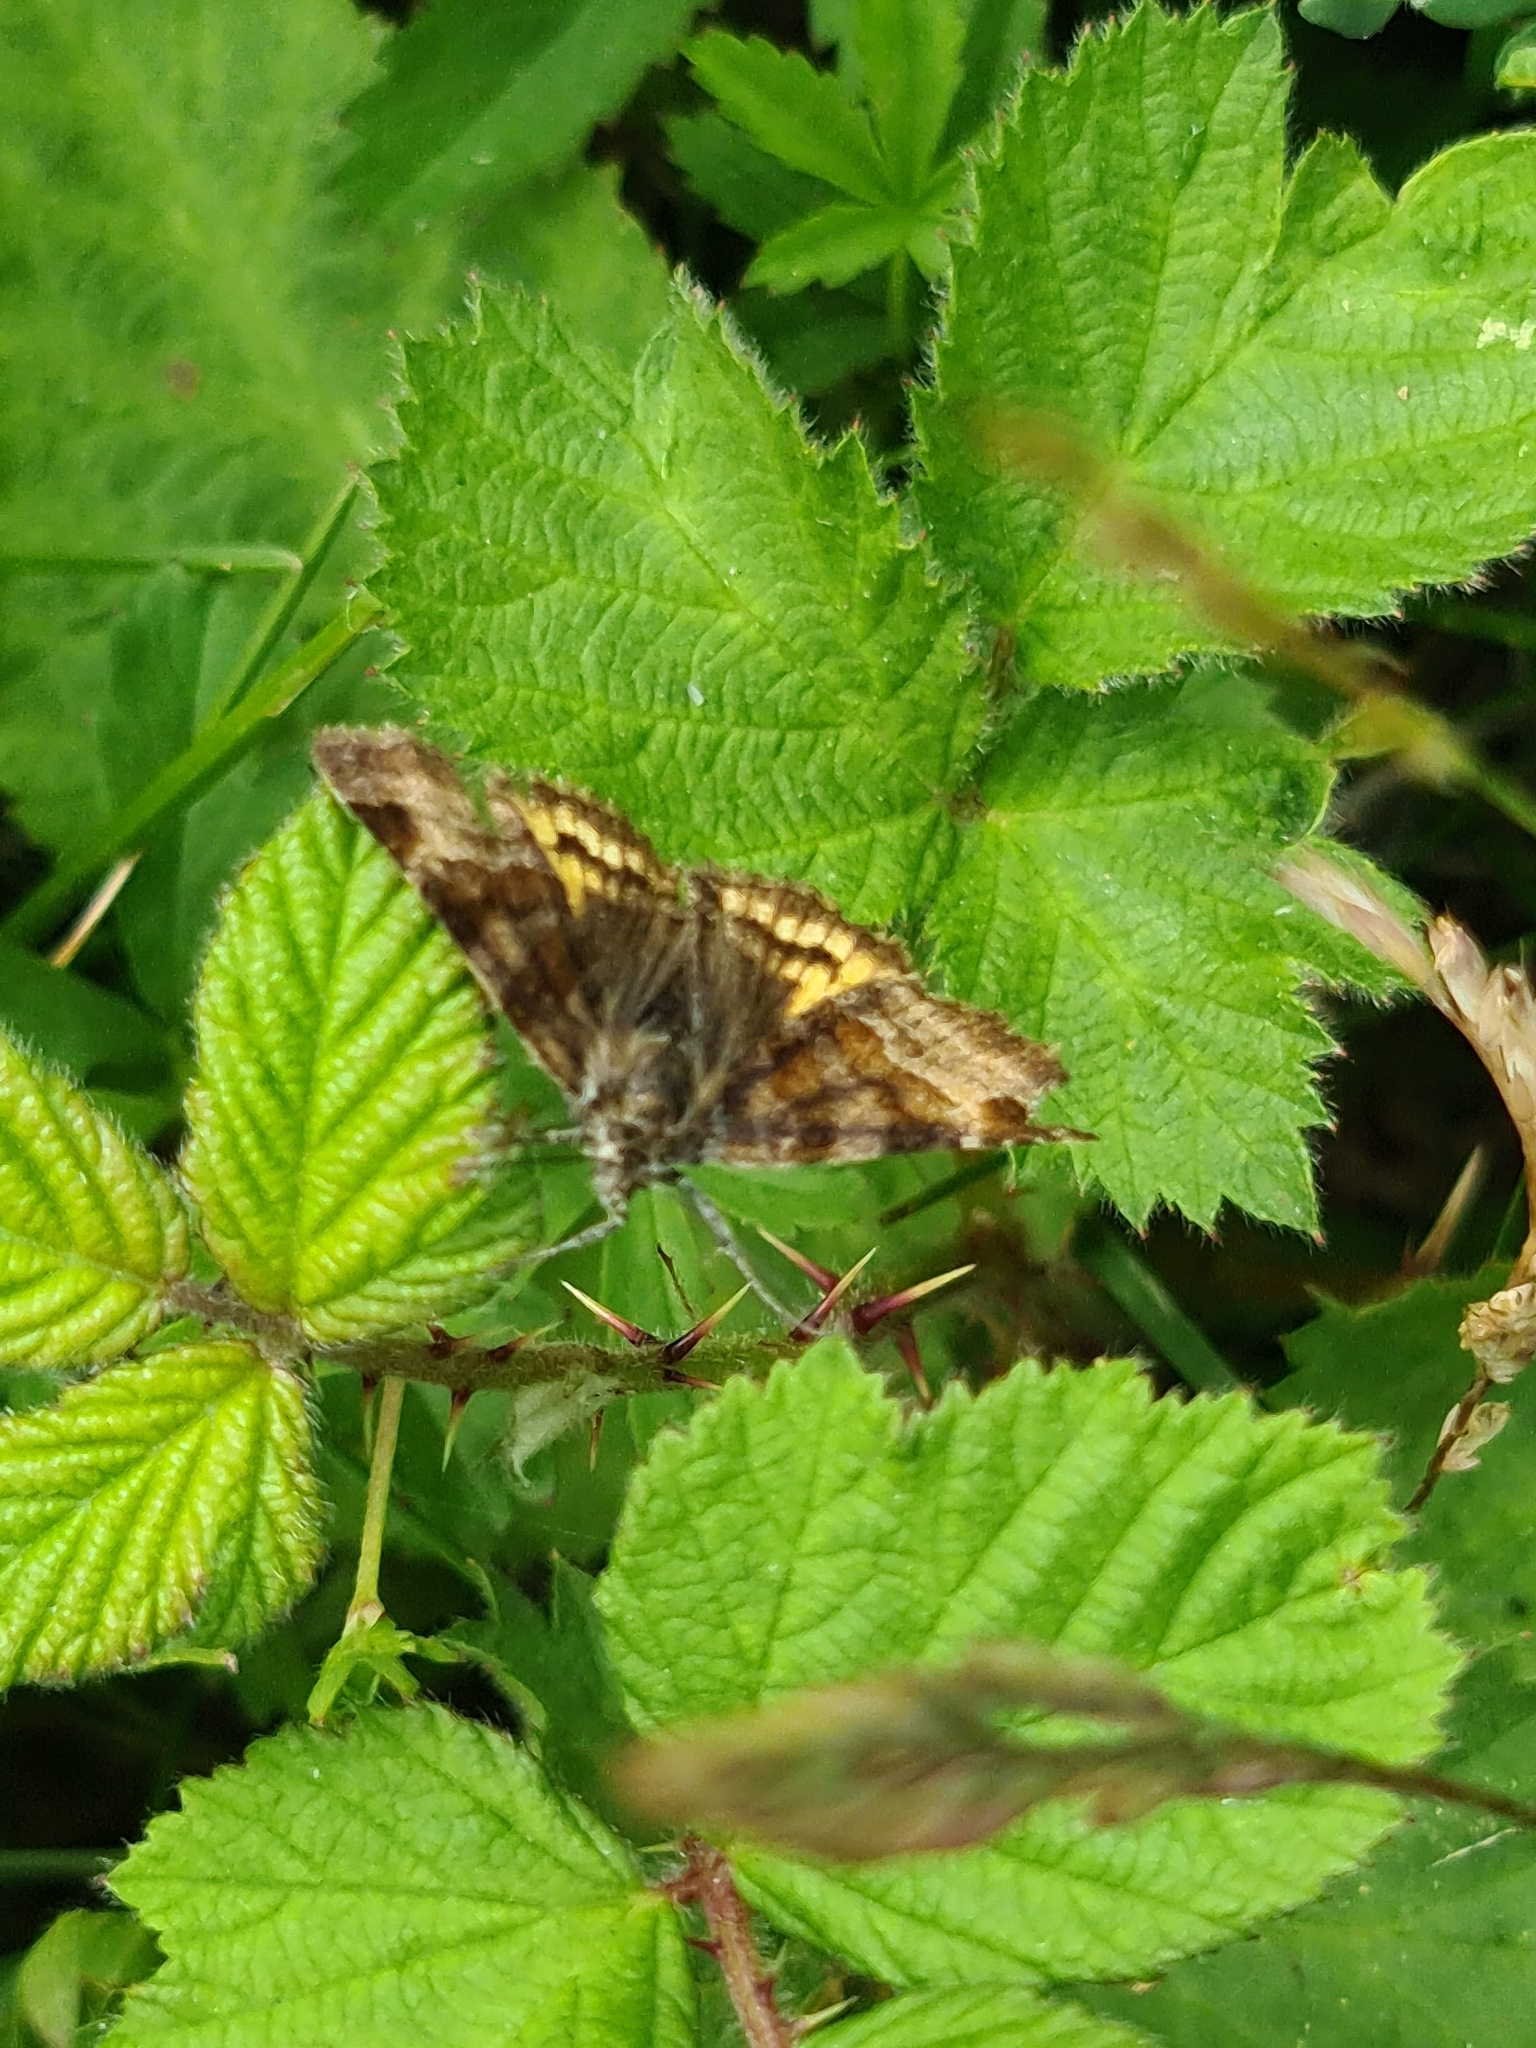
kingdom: Animalia
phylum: Arthropoda
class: Insecta
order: Lepidoptera
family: Erebidae
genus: Euclidia
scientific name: Euclidia glyphica
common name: Burnet companion
